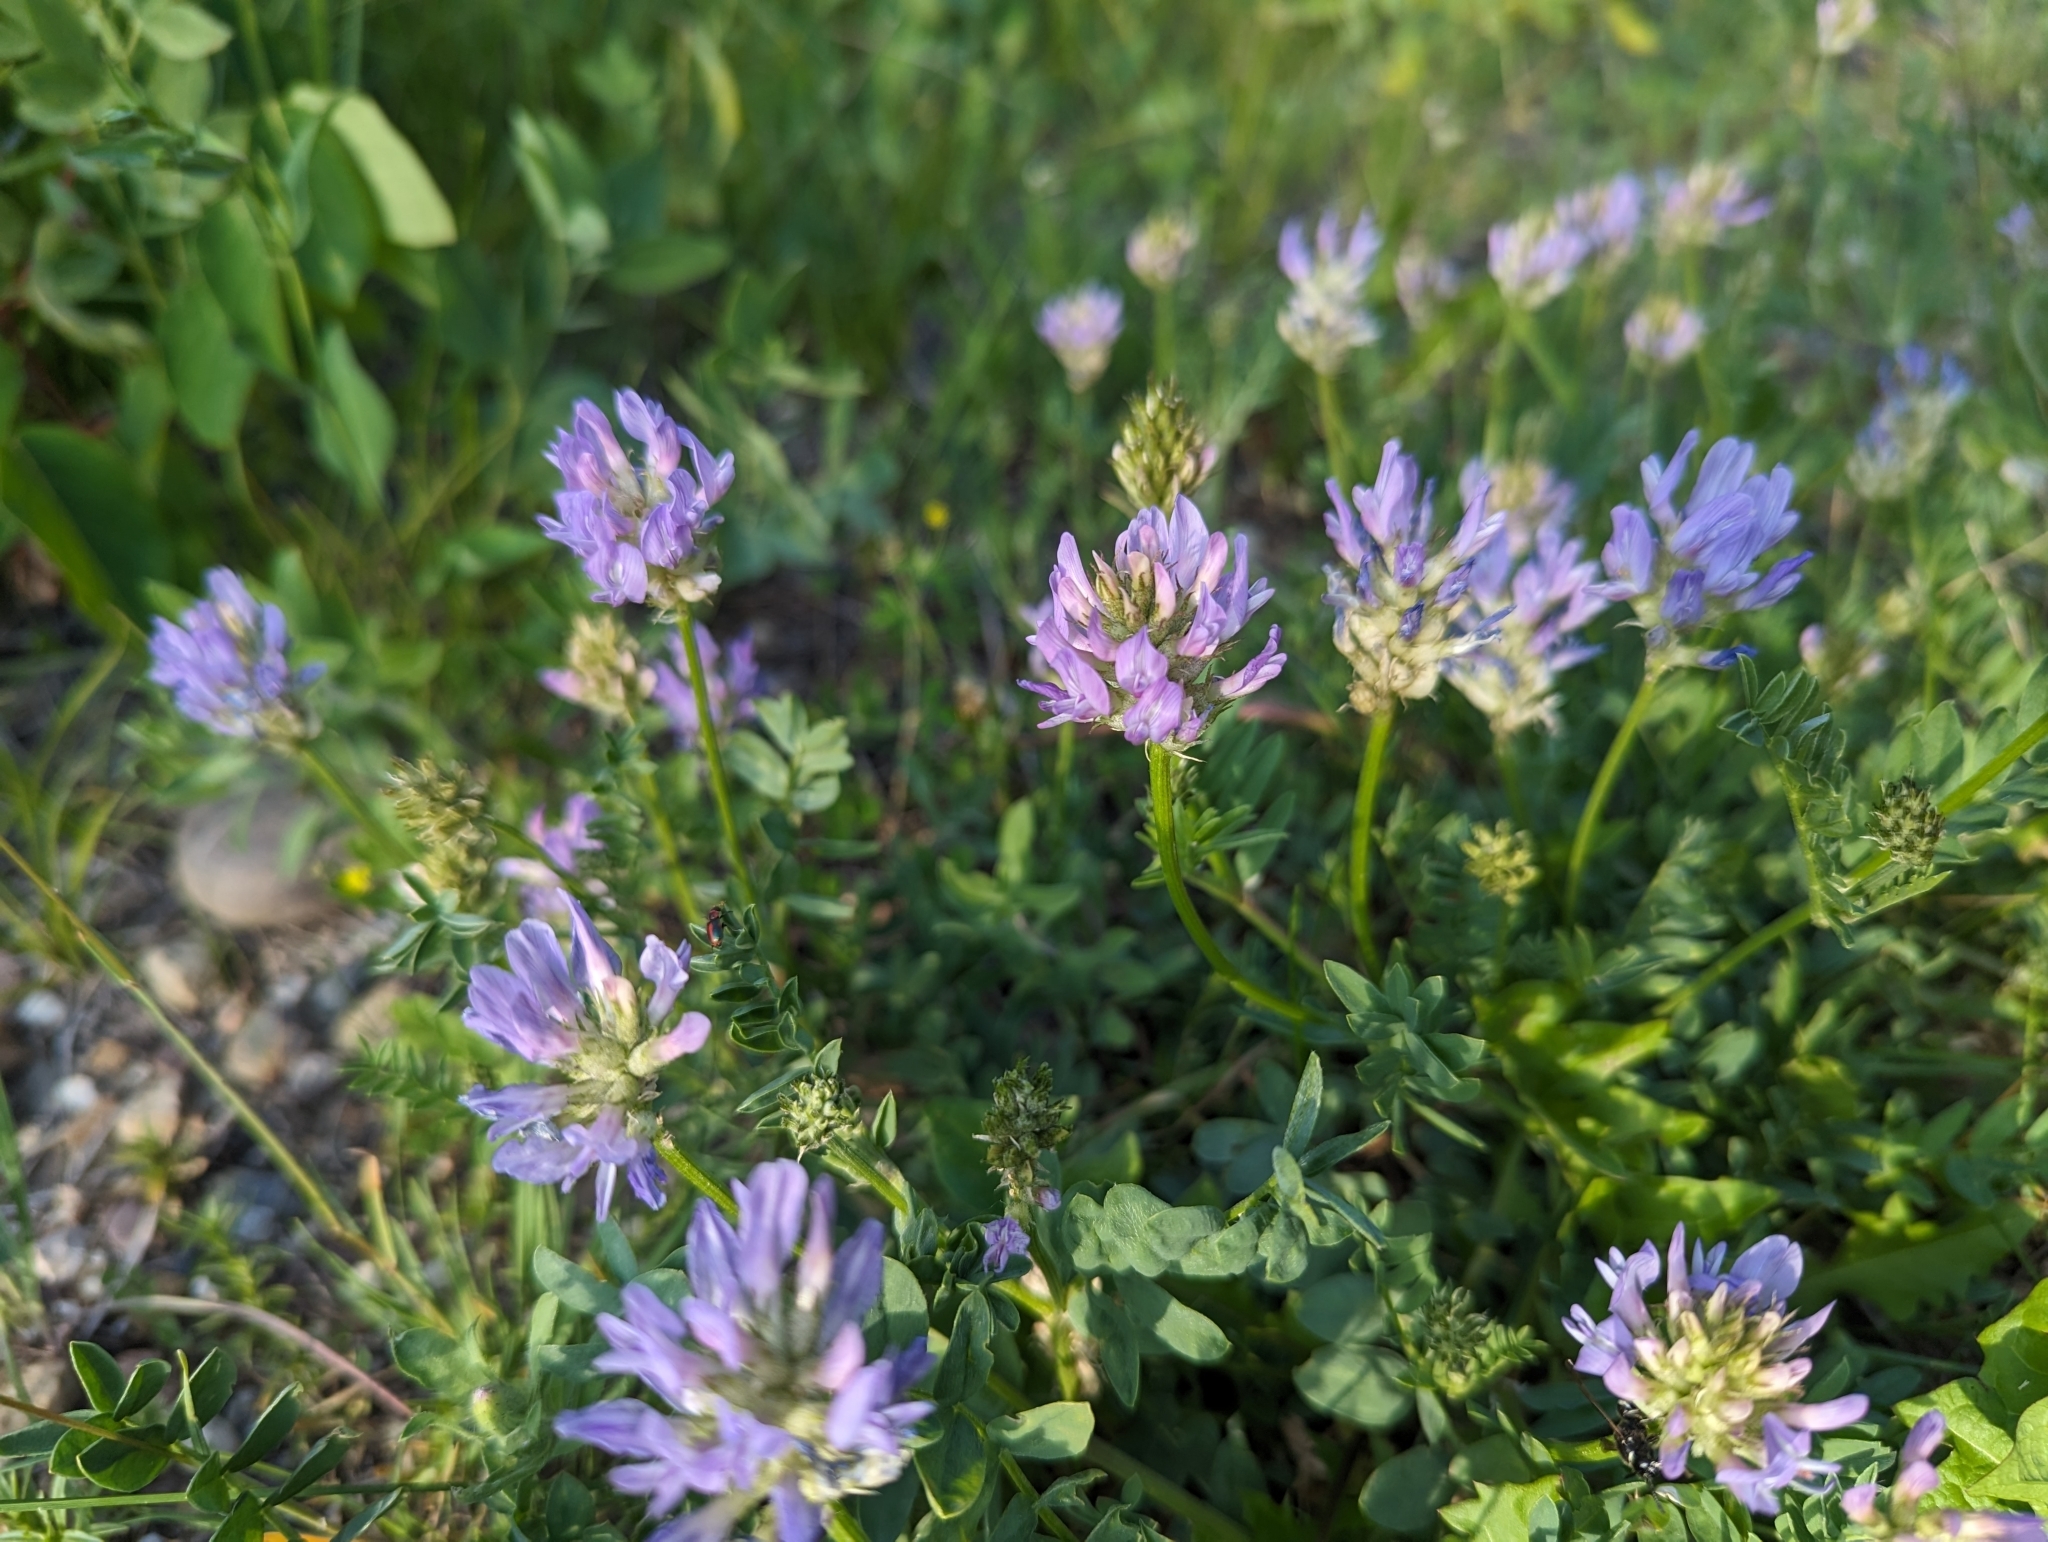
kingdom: Plantae
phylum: Tracheophyta
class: Magnoliopsida
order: Fabales
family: Fabaceae
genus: Astragalus
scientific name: Astragalus laxmannii
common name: Laxmann's milk-vetch
